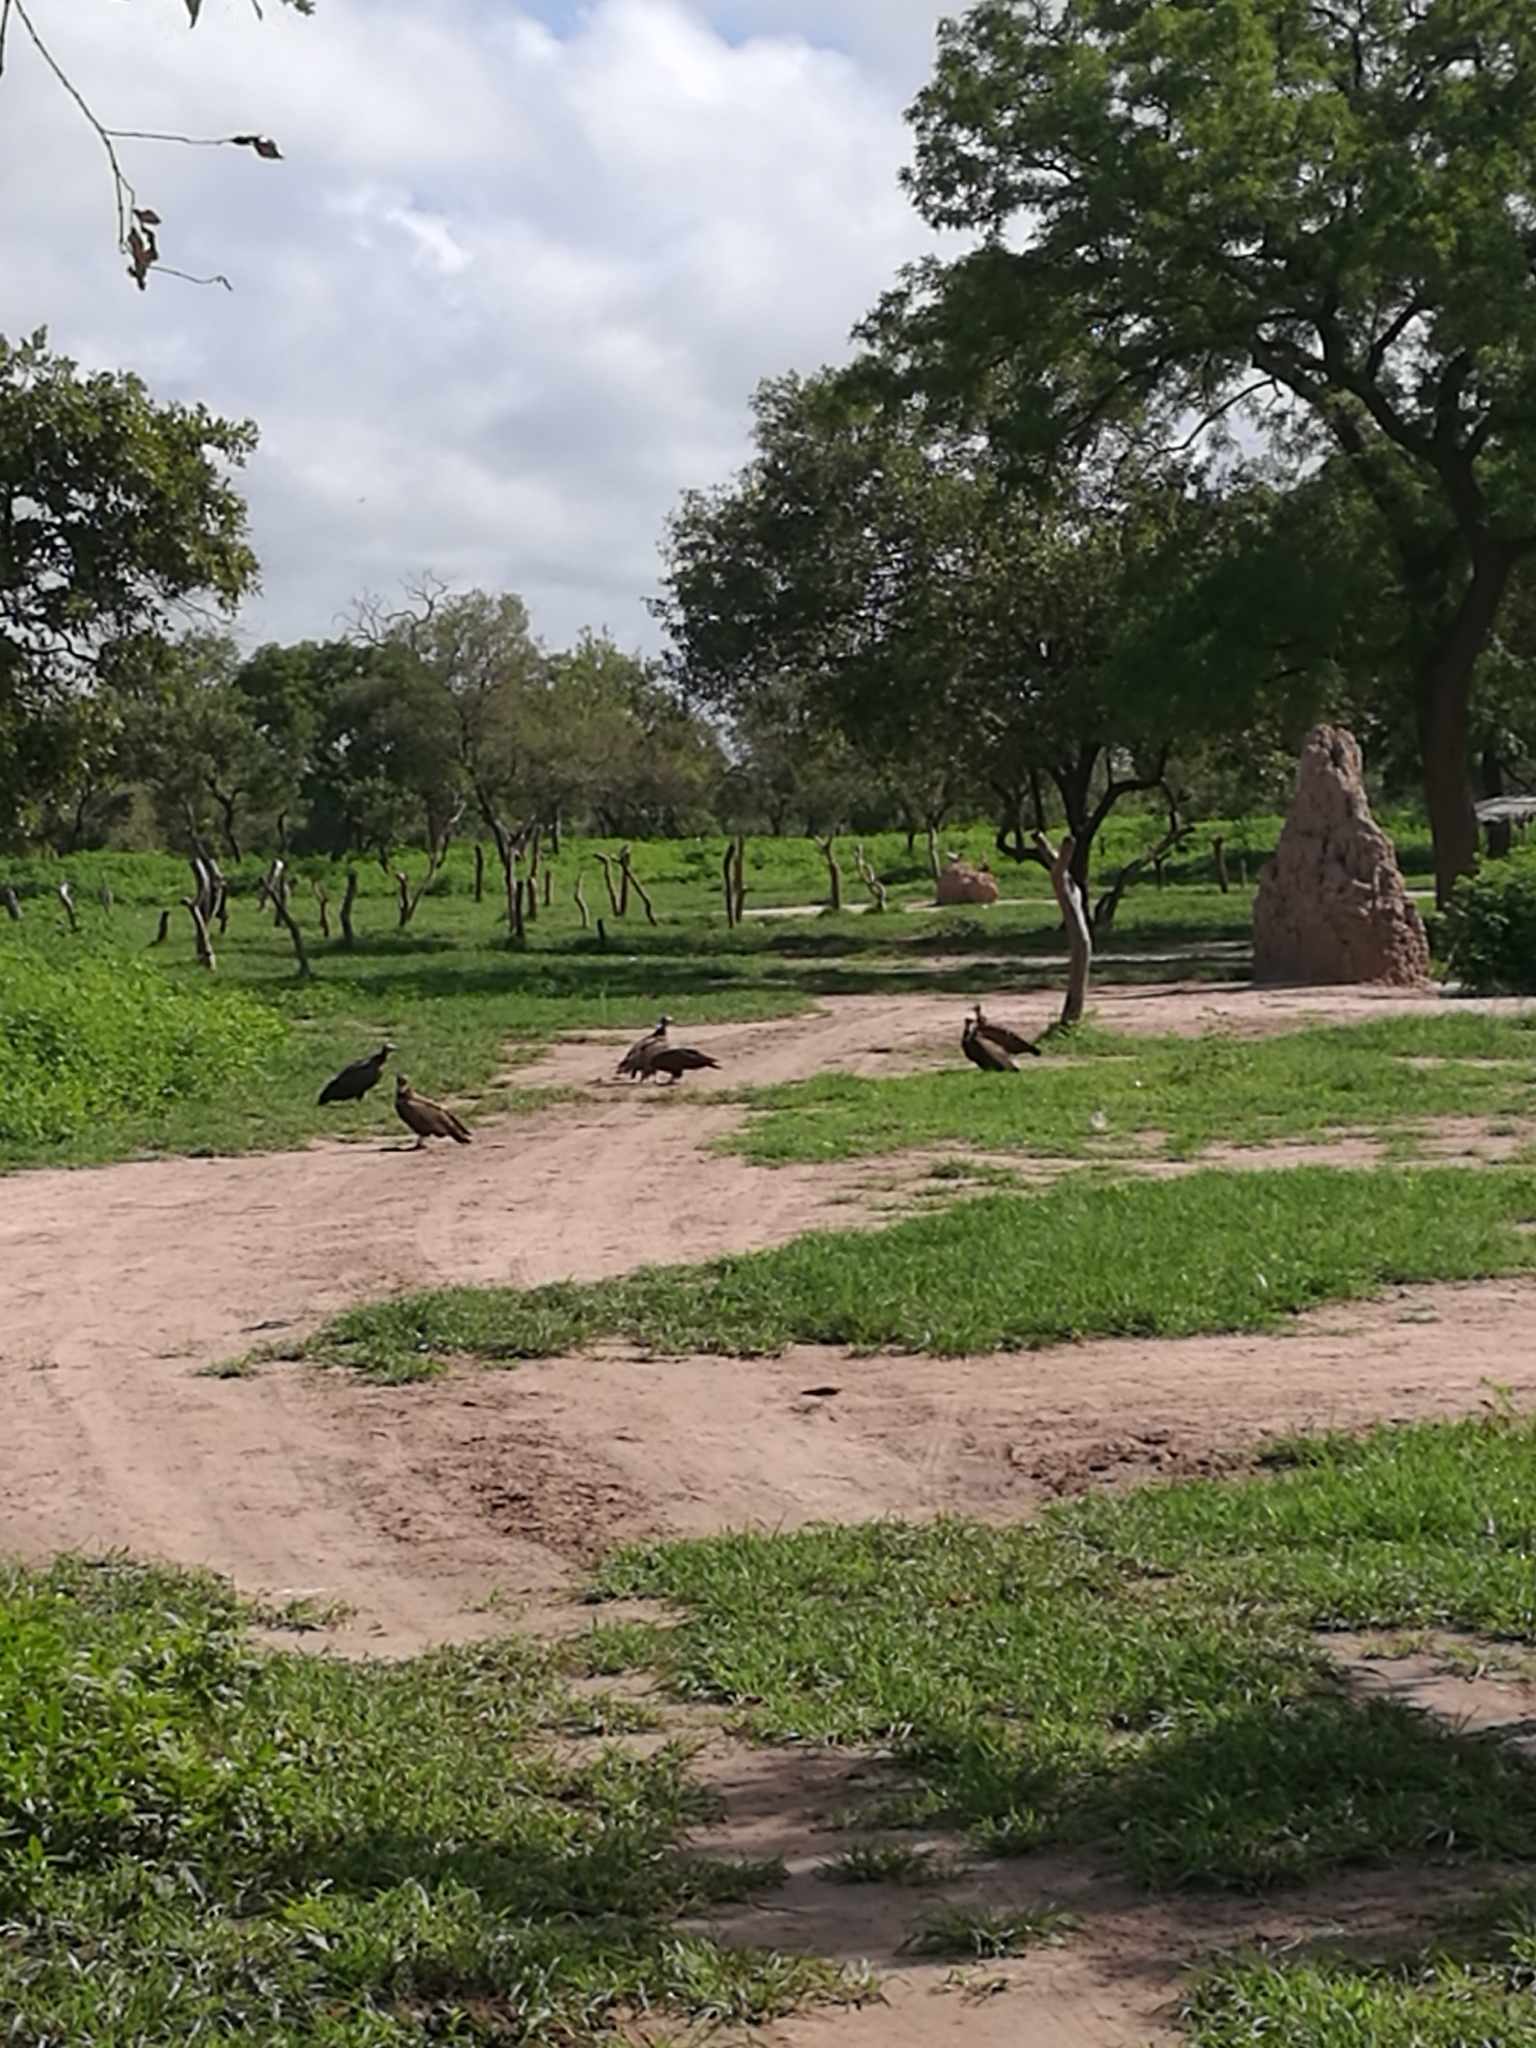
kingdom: Animalia
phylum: Chordata
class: Aves
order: Accipitriformes
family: Accipitridae
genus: Necrosyrtes
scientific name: Necrosyrtes monachus
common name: Hooded vulture
